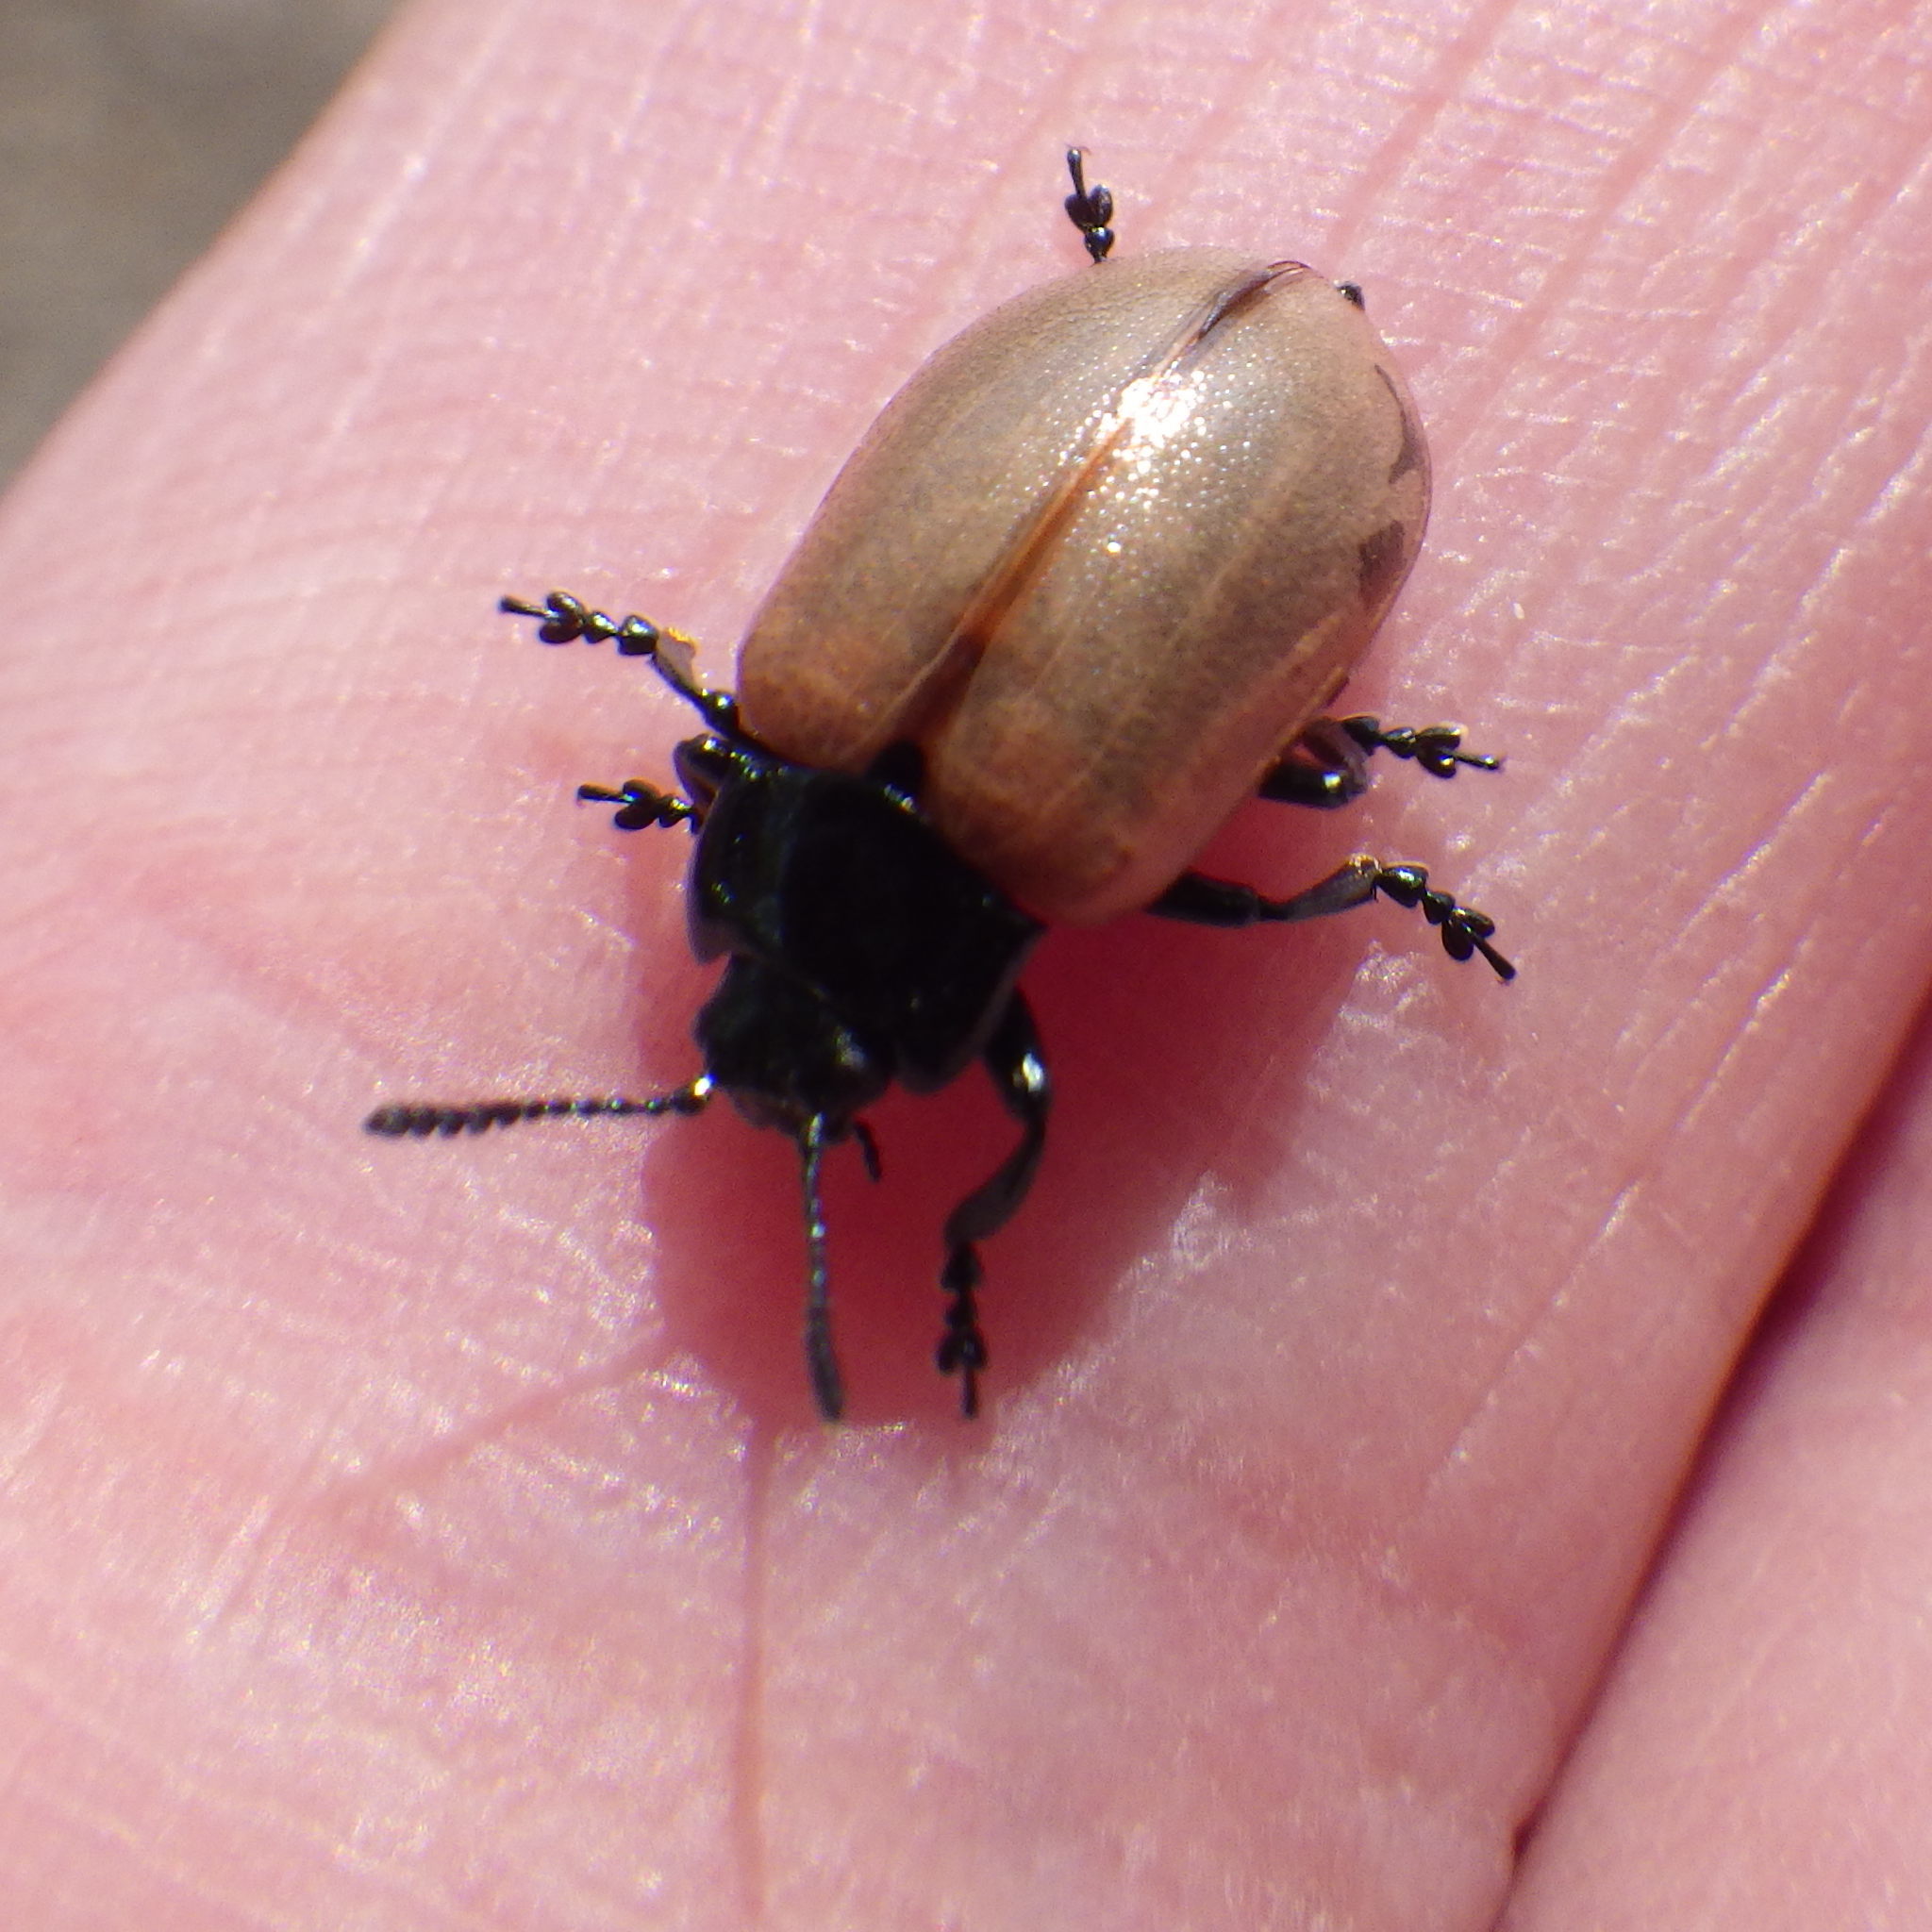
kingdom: Animalia
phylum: Arthropoda
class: Insecta
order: Coleoptera
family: Chrysomelidae
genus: Chrysomela
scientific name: Chrysomela crotchi
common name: Leaf beetle
